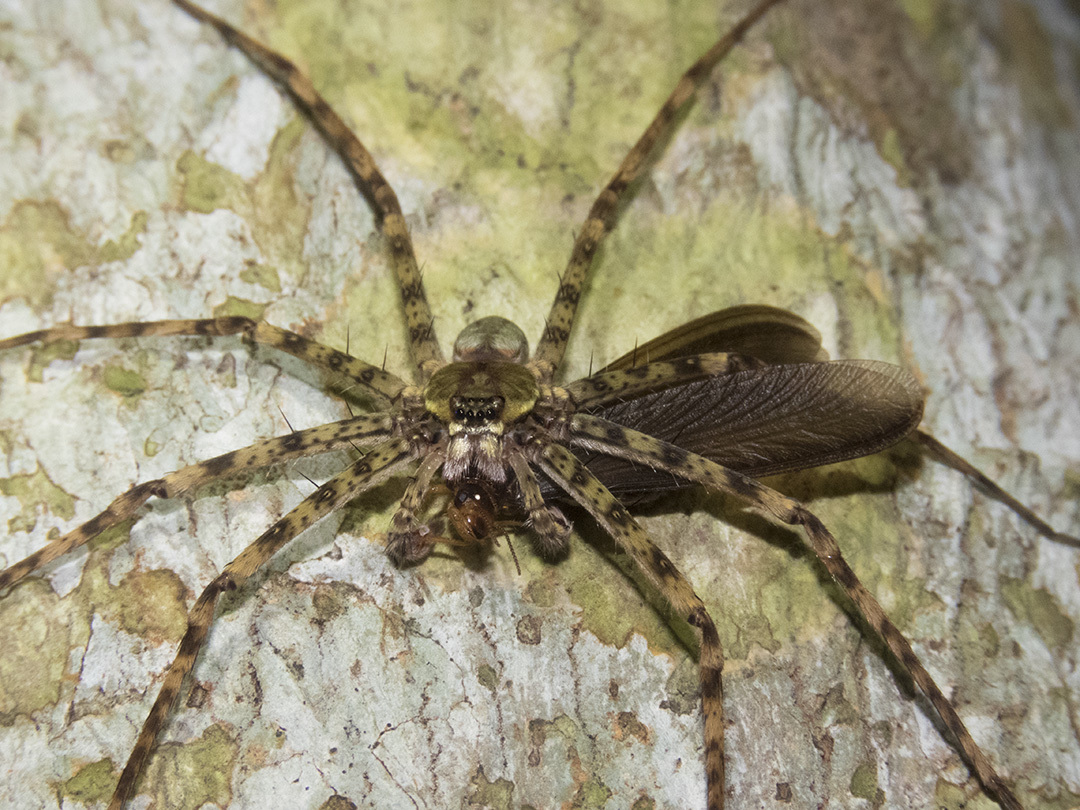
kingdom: Animalia
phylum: Arthropoda
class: Arachnida
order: Araneae
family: Sparassidae
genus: Heteropoda
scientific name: Heteropoda boiei
